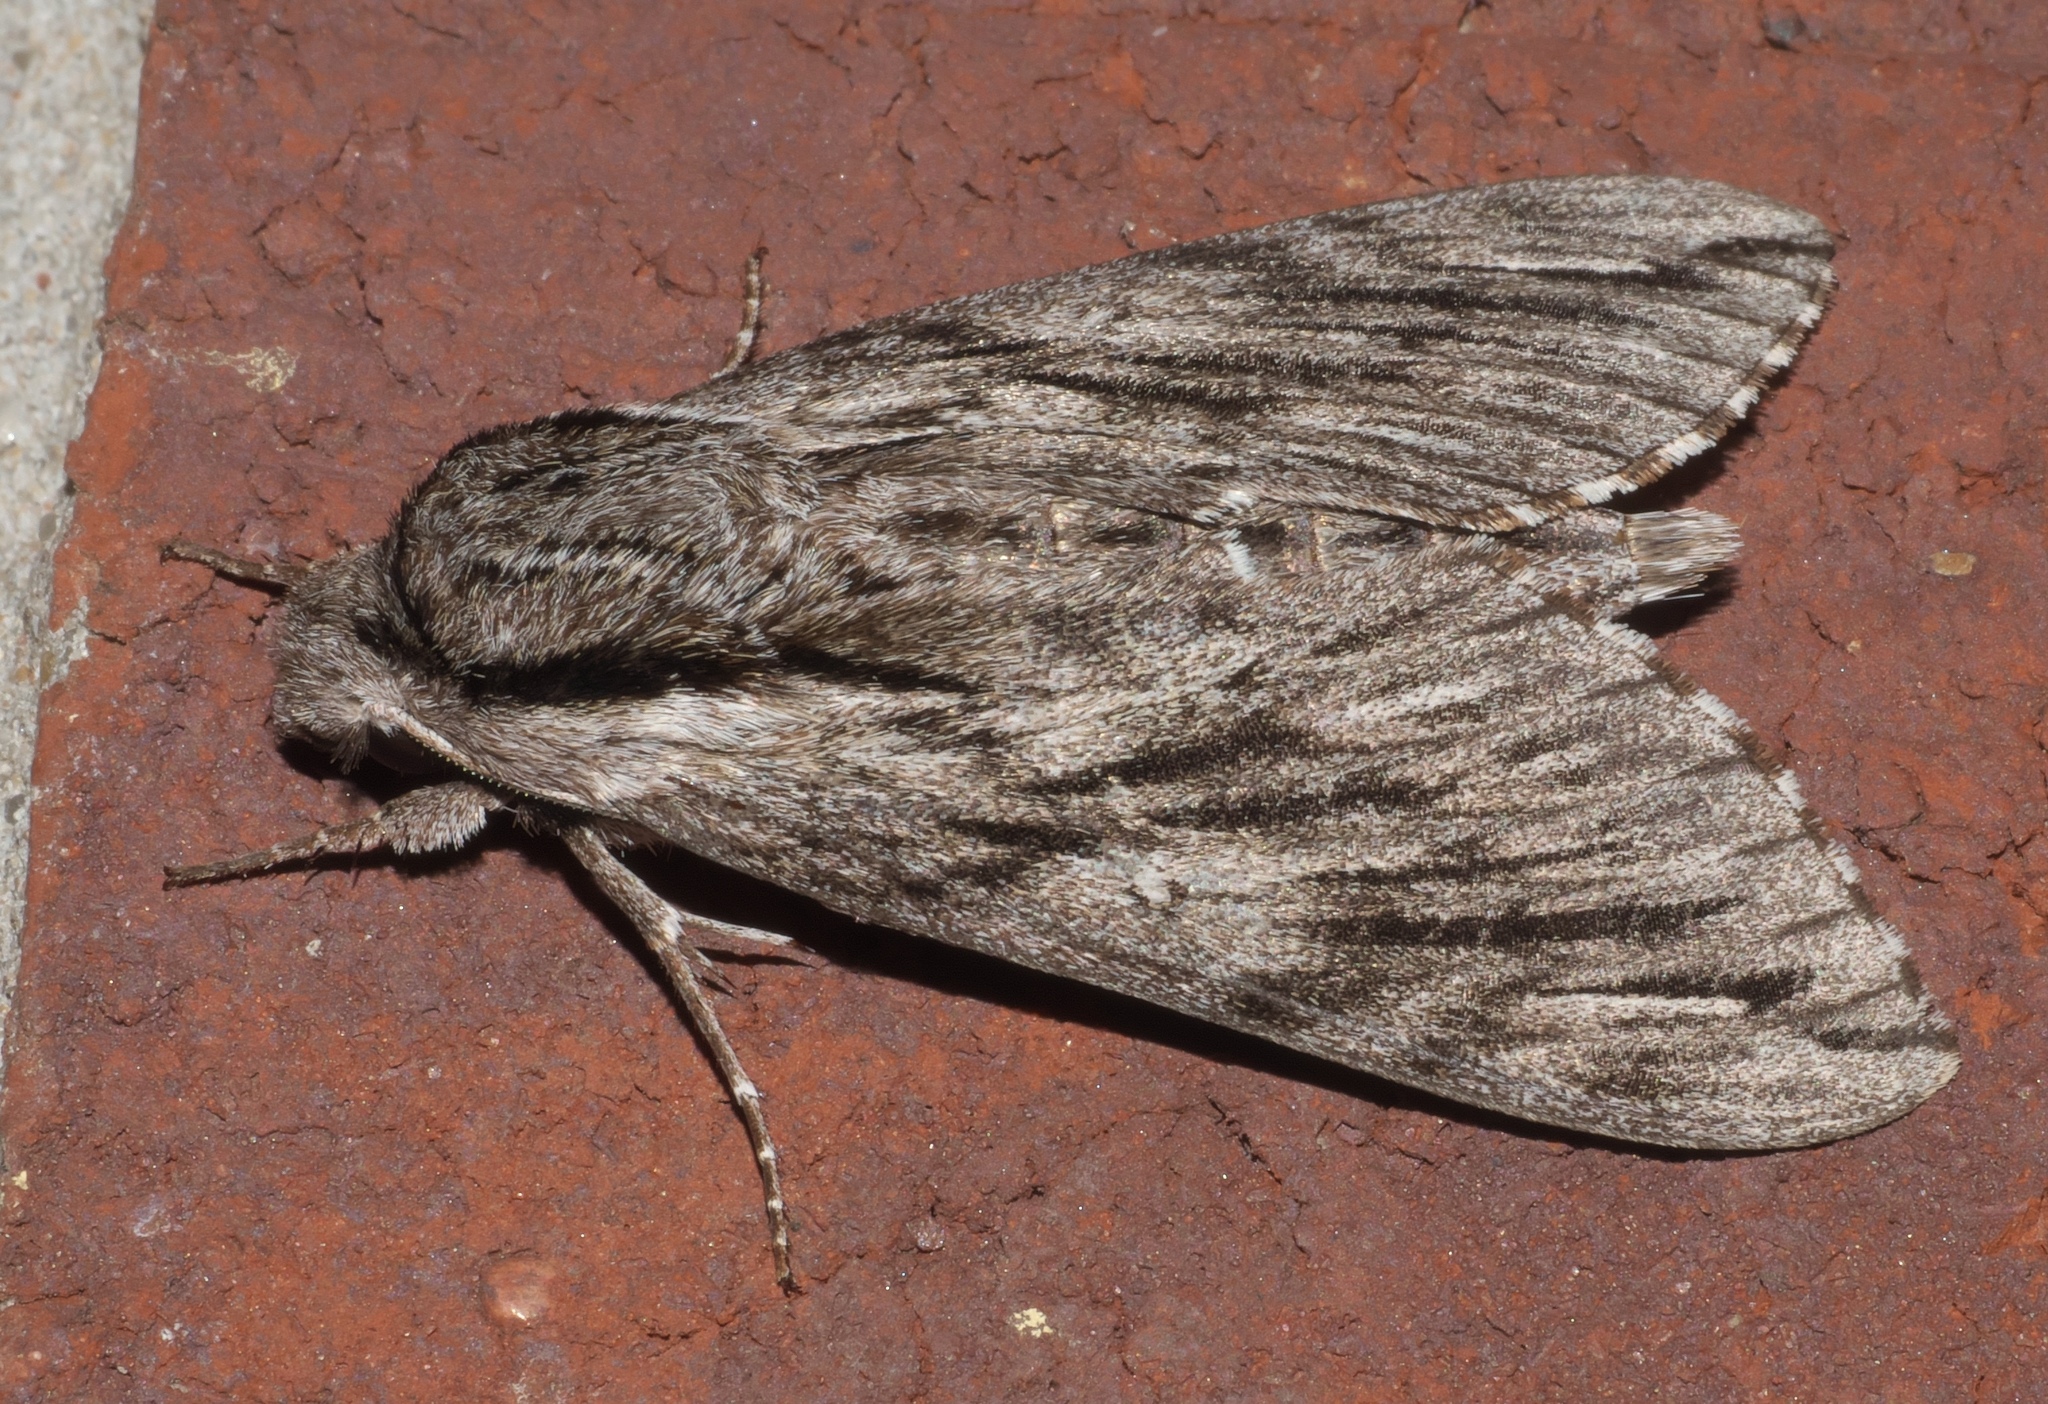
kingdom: Animalia
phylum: Arthropoda
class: Insecta
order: Lepidoptera
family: Sphingidae
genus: Paratrea
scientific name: Paratrea plebeja
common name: Plebian sphinx
